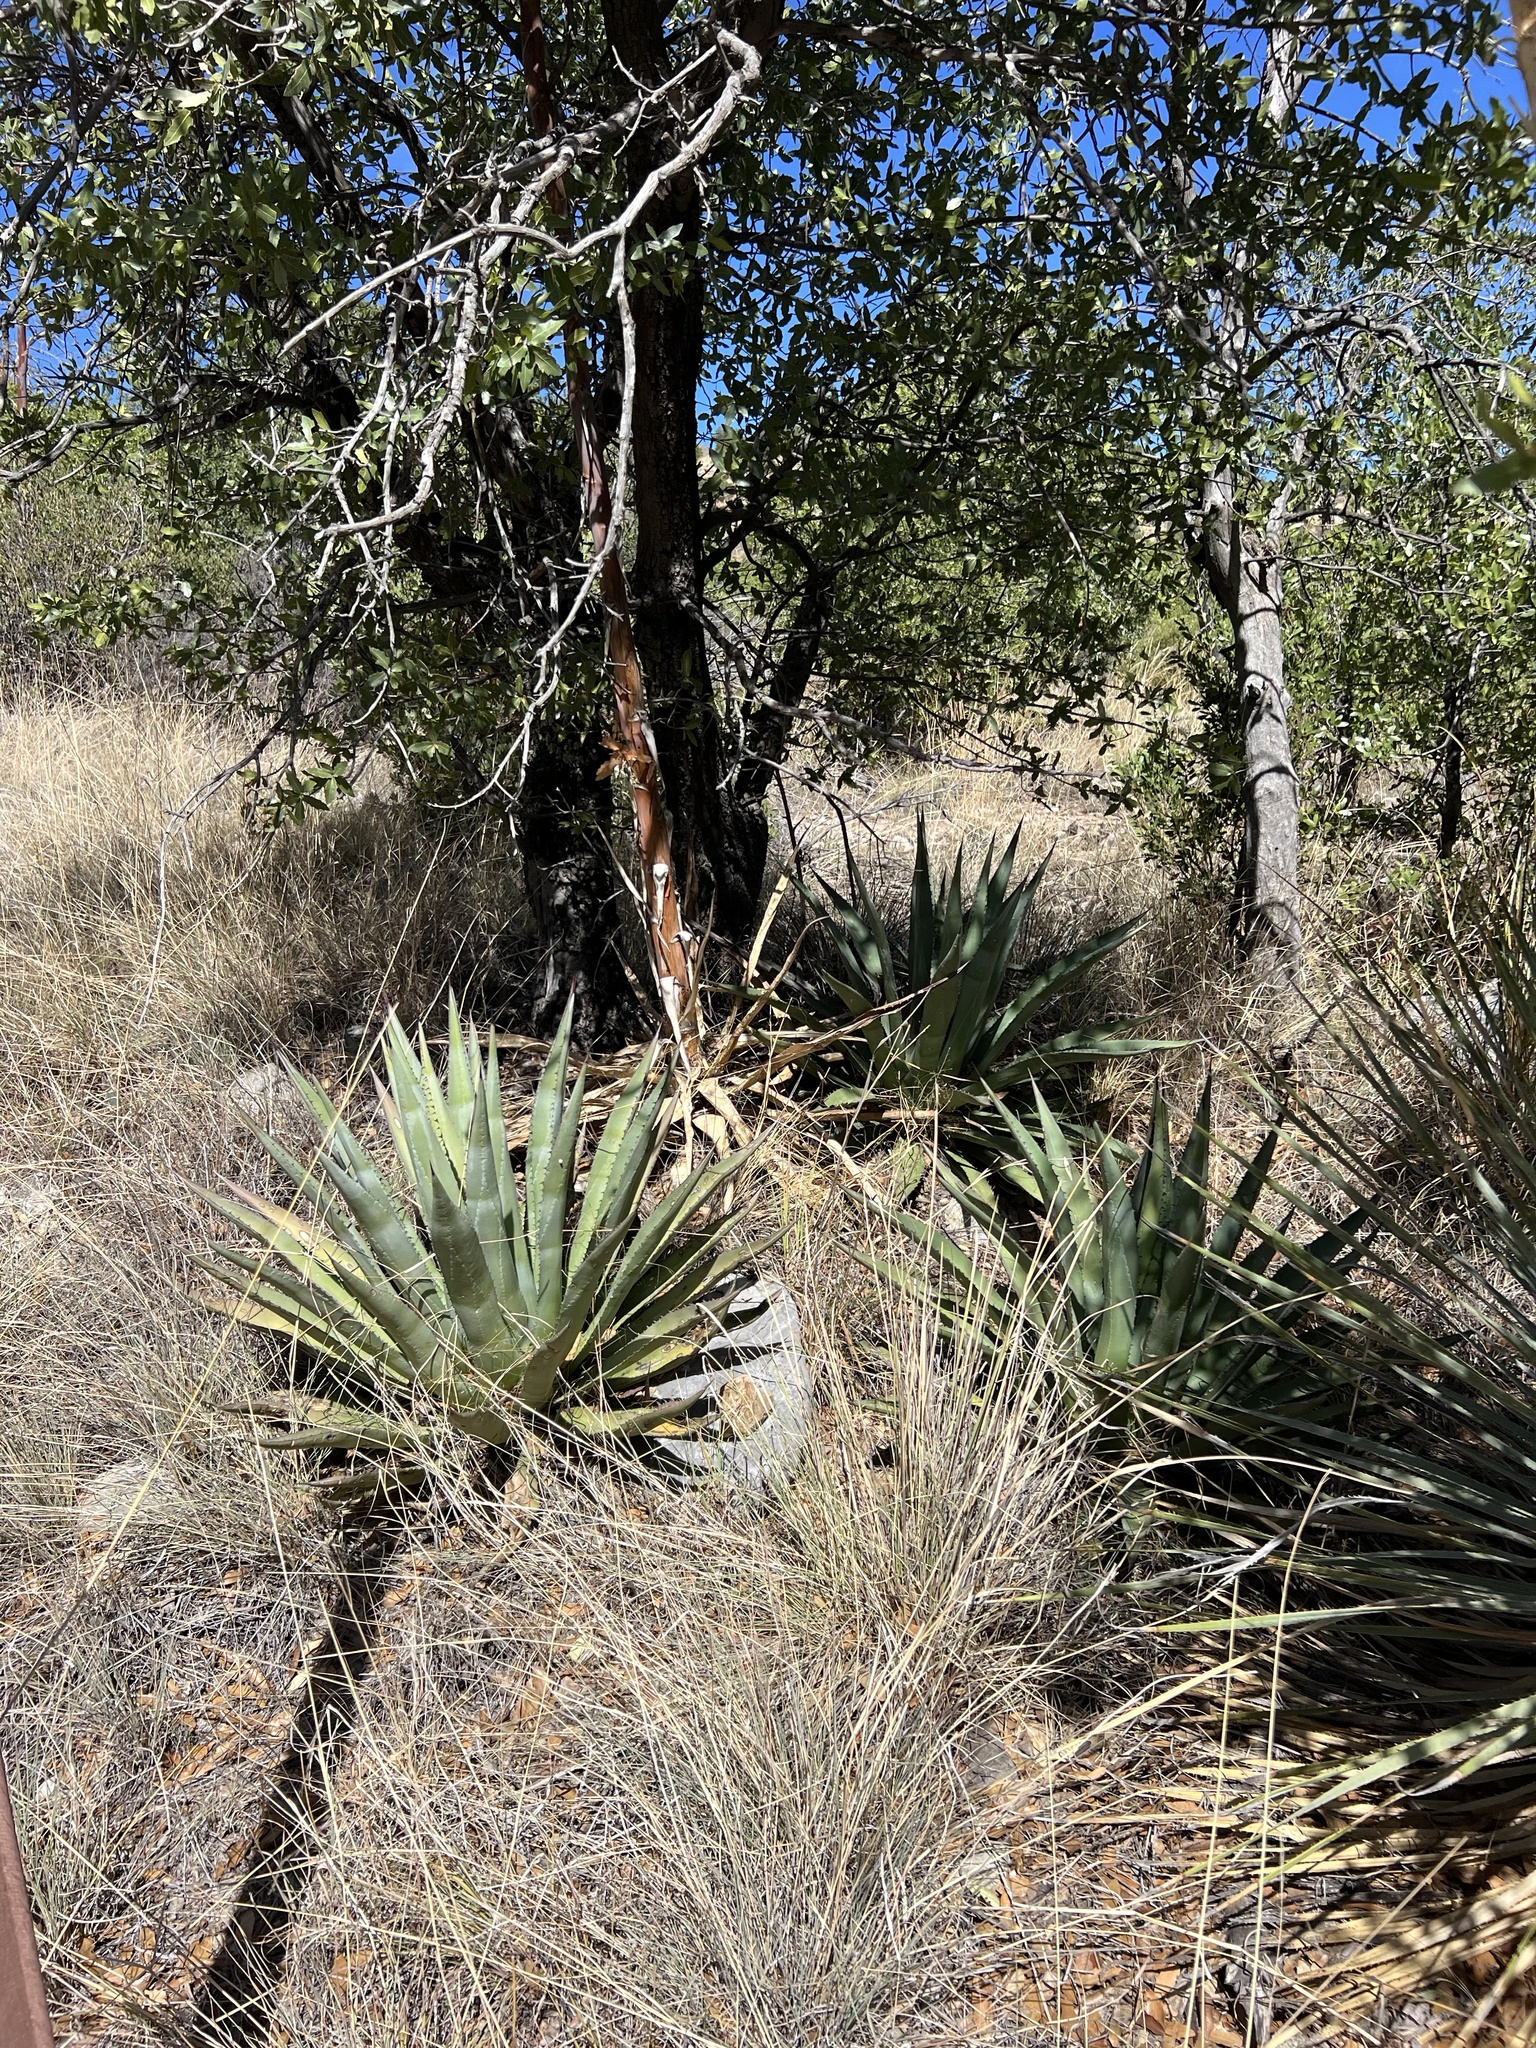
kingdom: Plantae
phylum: Tracheophyta
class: Liliopsida
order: Asparagales
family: Asparagaceae
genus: Agave
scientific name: Agave palmeri
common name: Palmer agave
